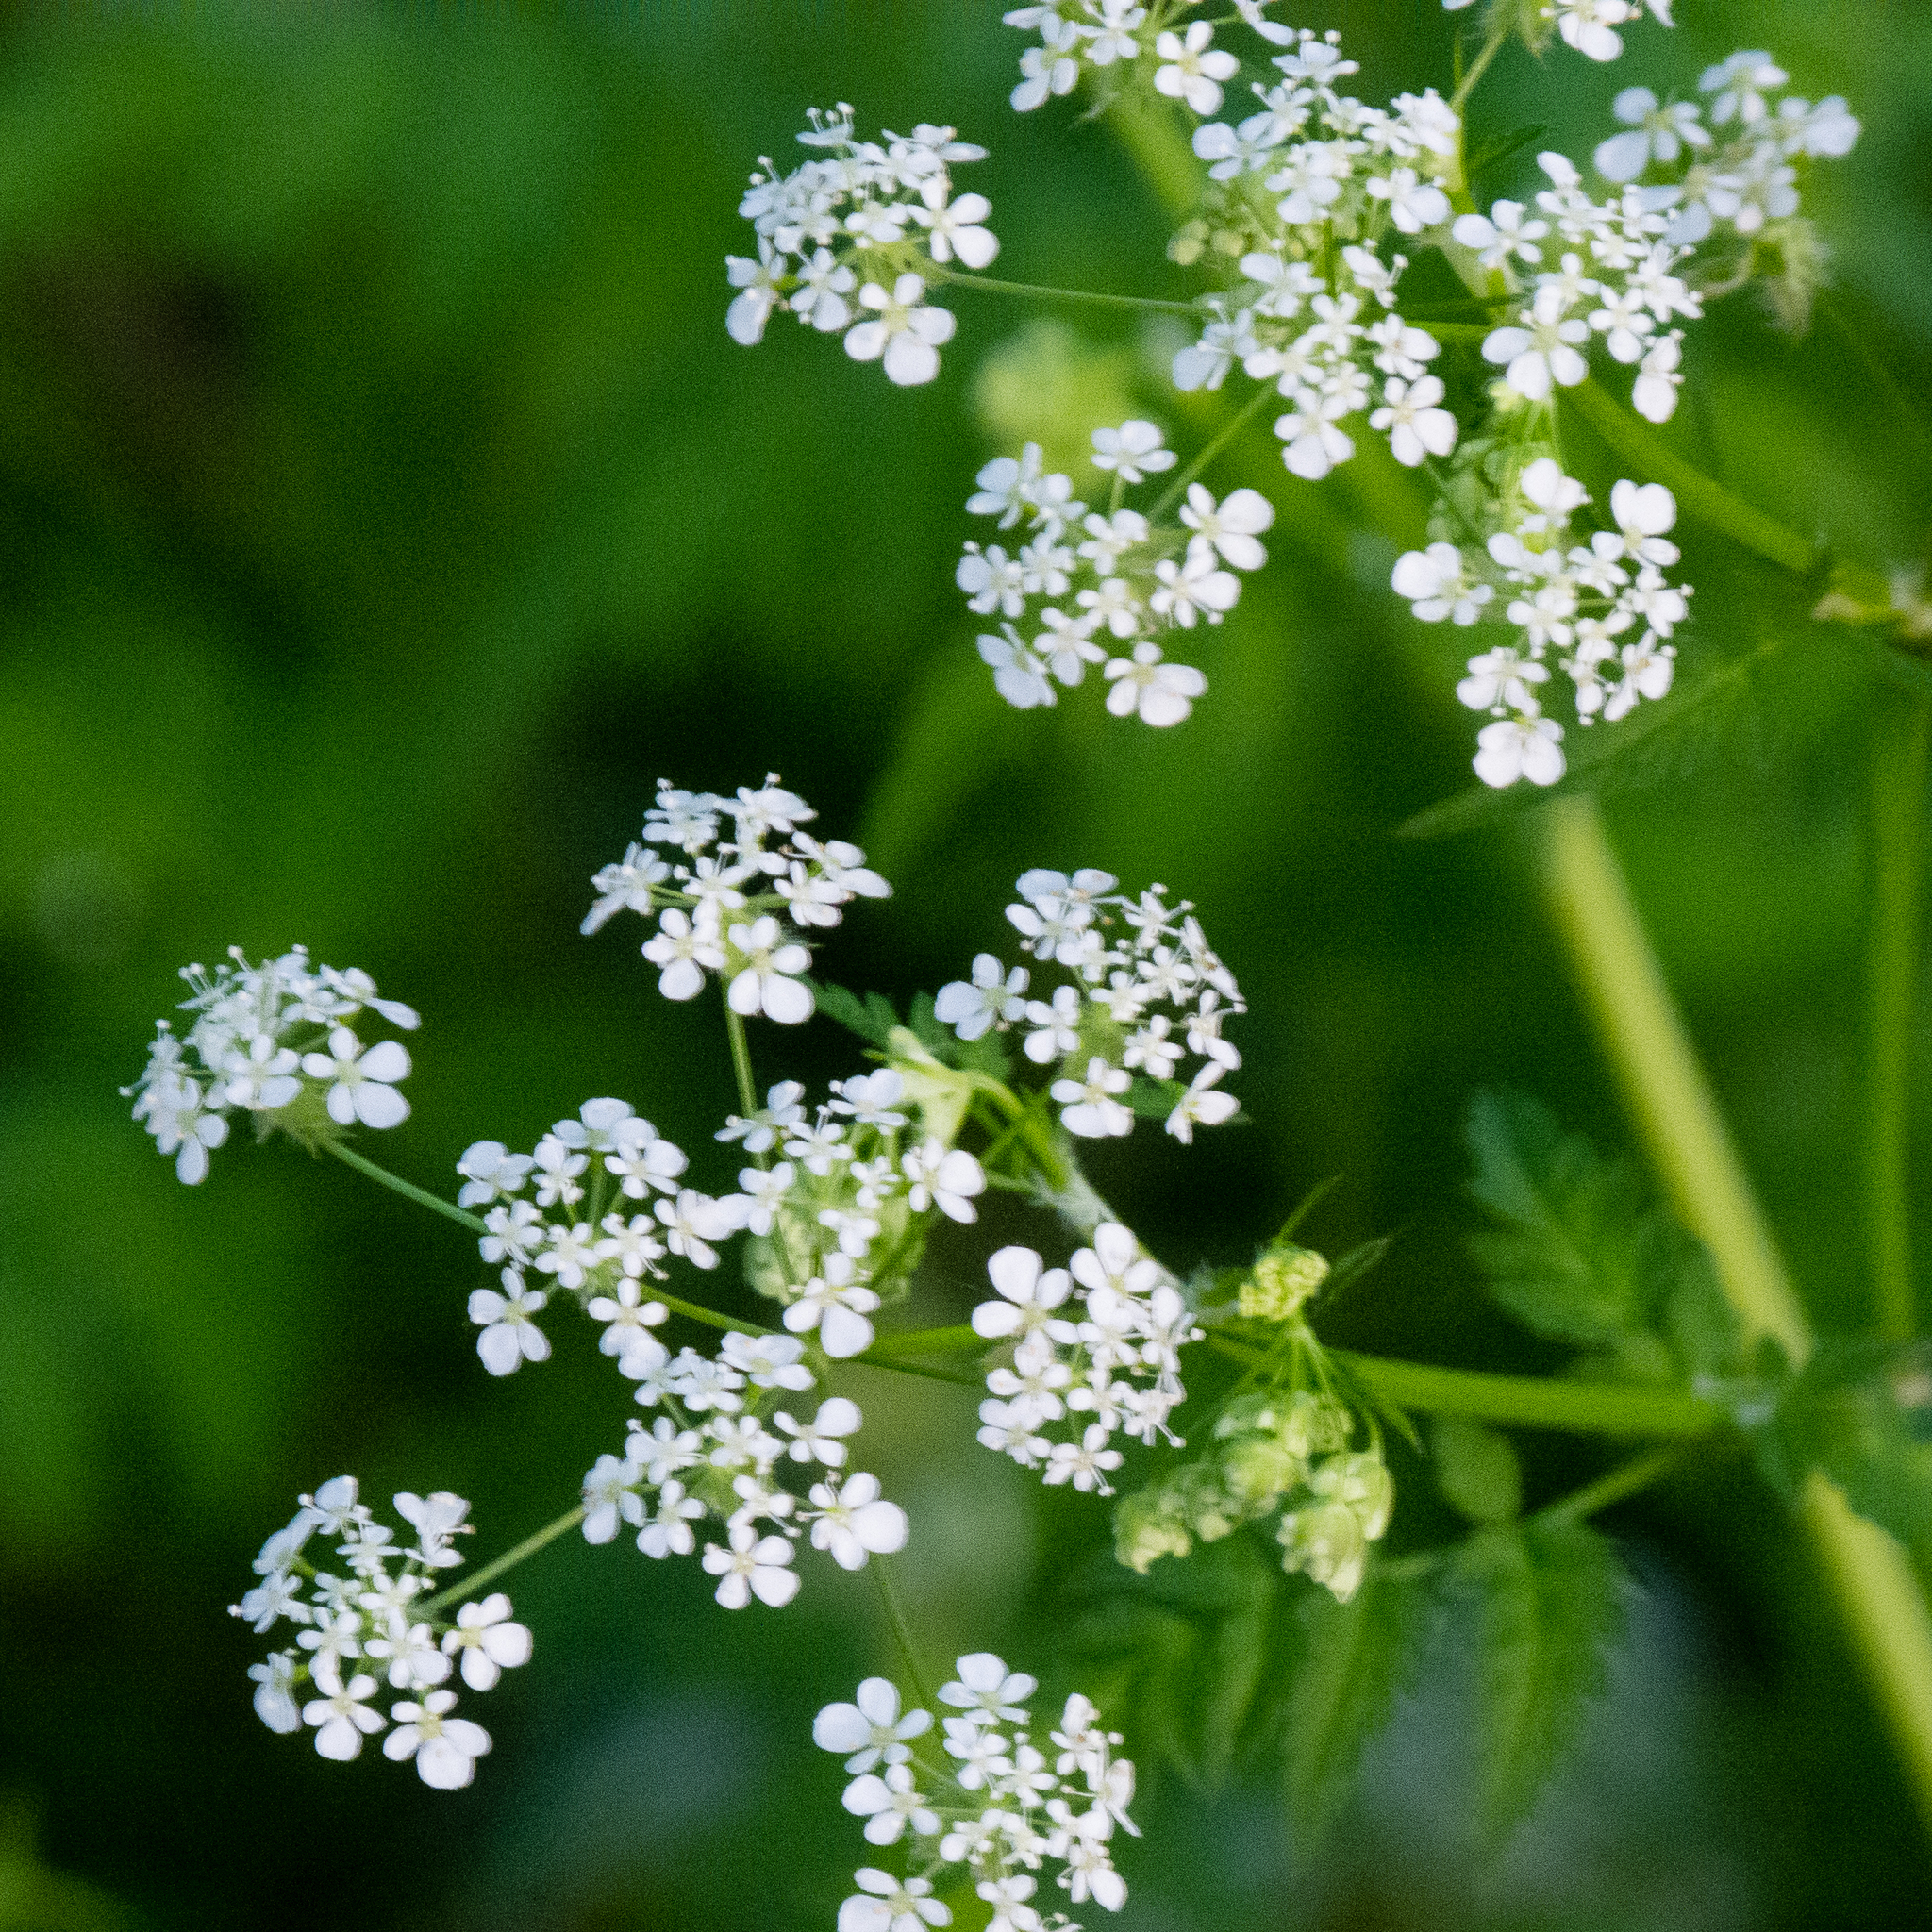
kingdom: Plantae
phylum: Tracheophyta
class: Magnoliopsida
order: Apiales
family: Apiaceae
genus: Anthriscus
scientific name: Anthriscus sylvestris
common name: Cow parsley
